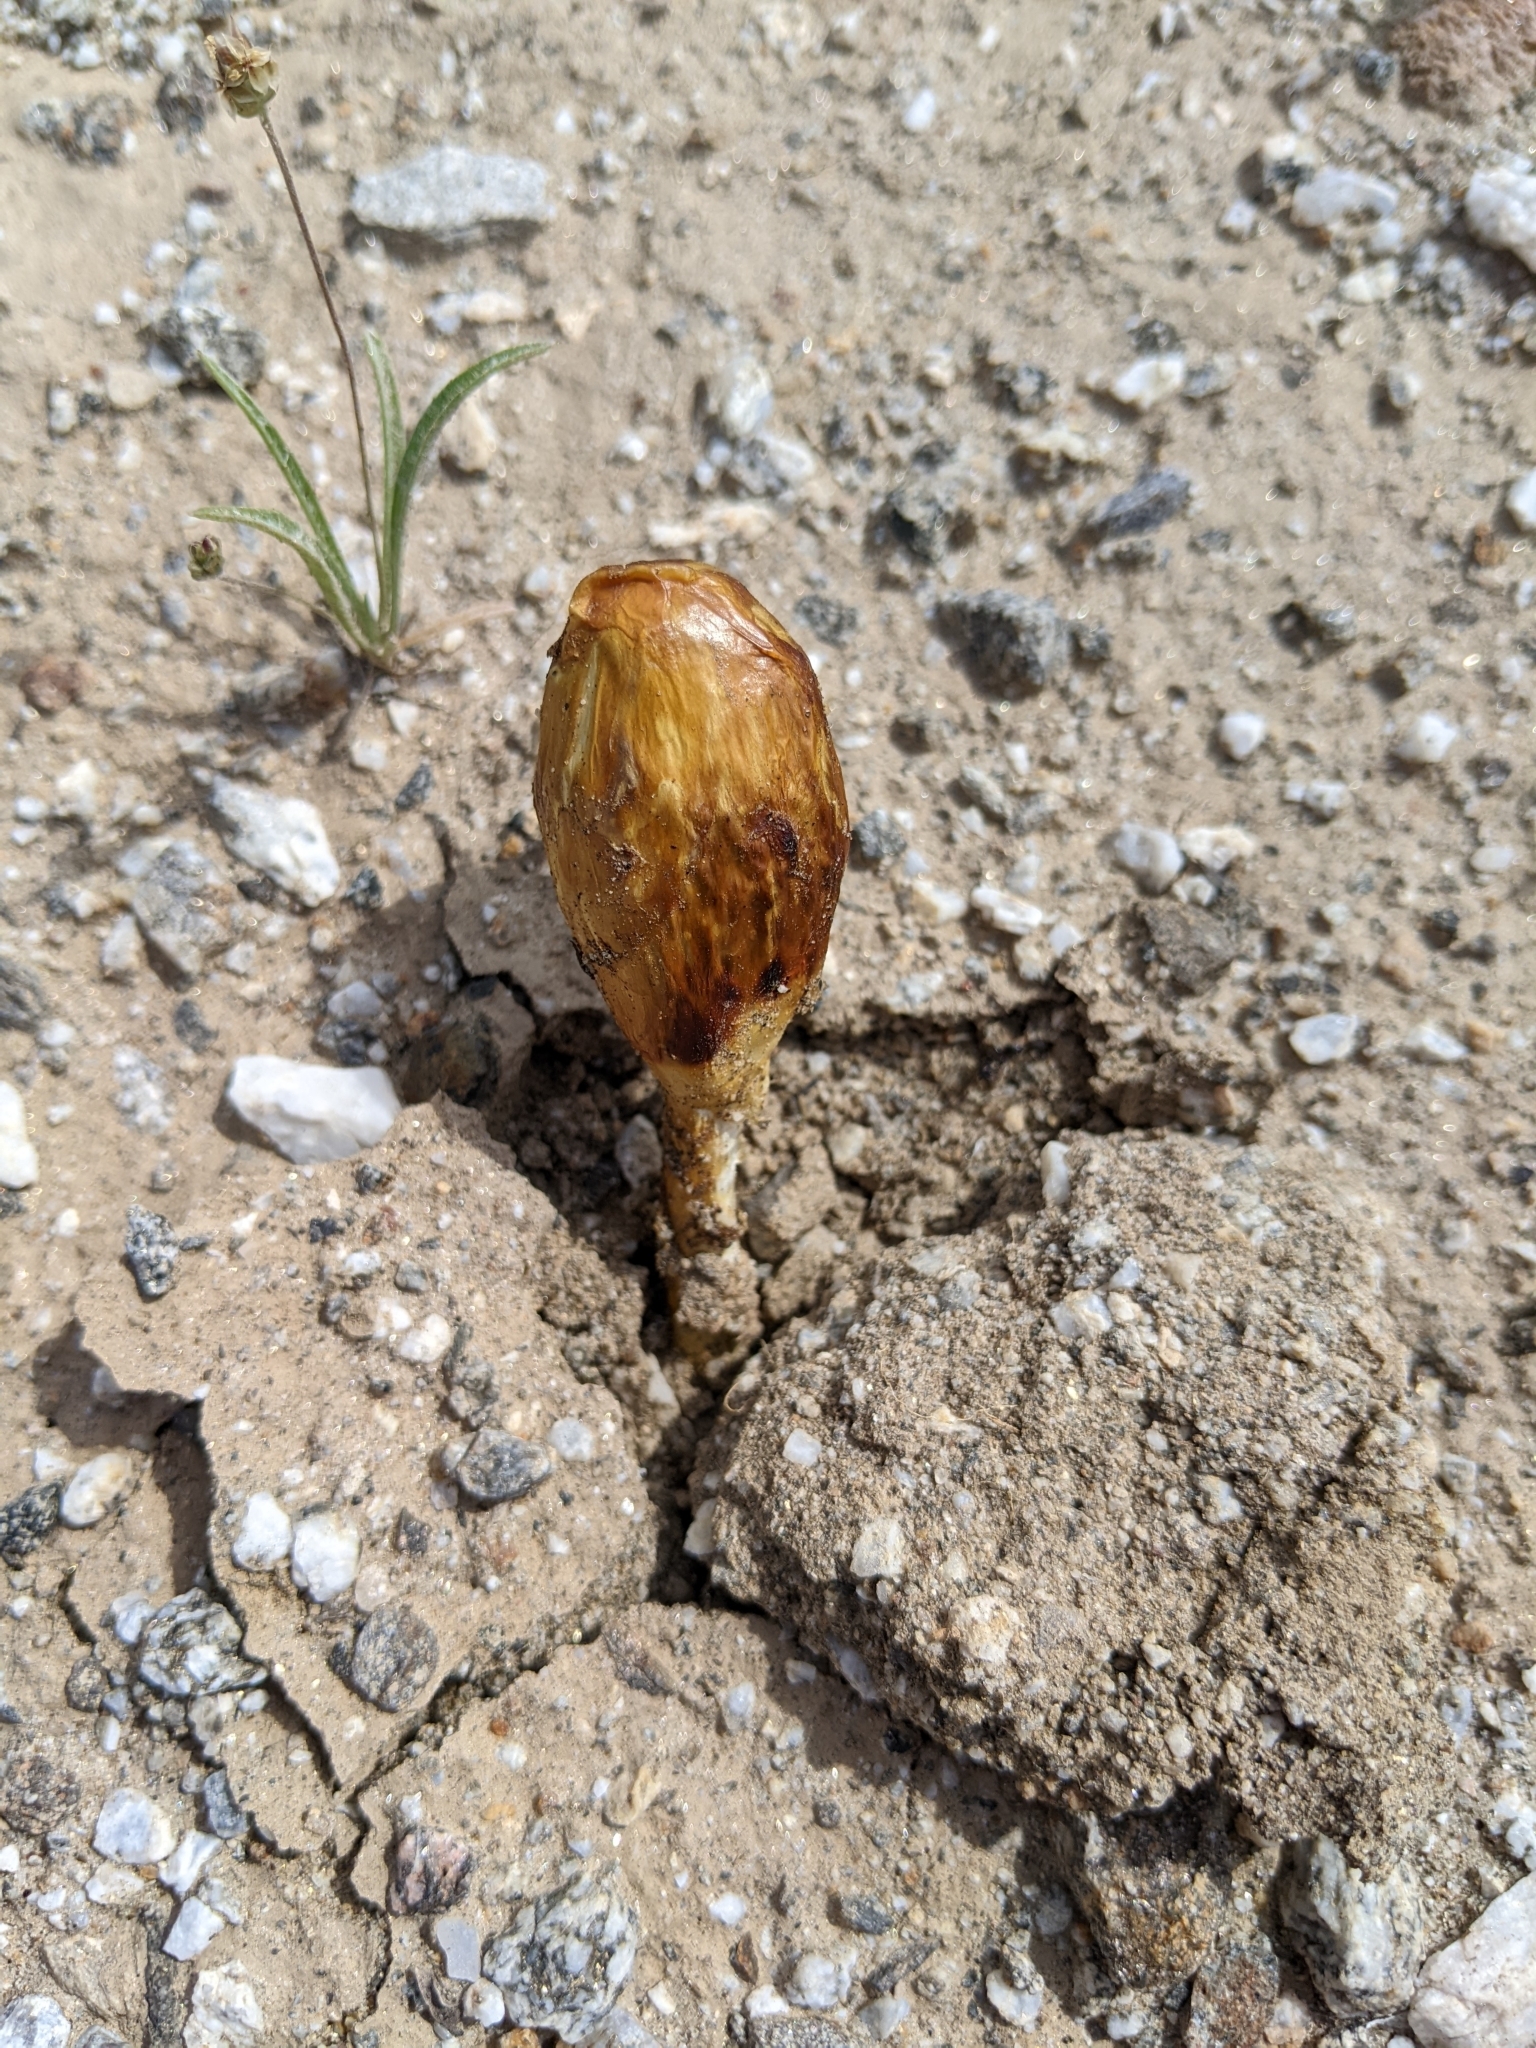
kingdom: Fungi
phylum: Basidiomycota
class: Agaricomycetes
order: Agaricales
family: Agaricaceae
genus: Podaxis
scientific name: Podaxis pistillaris
